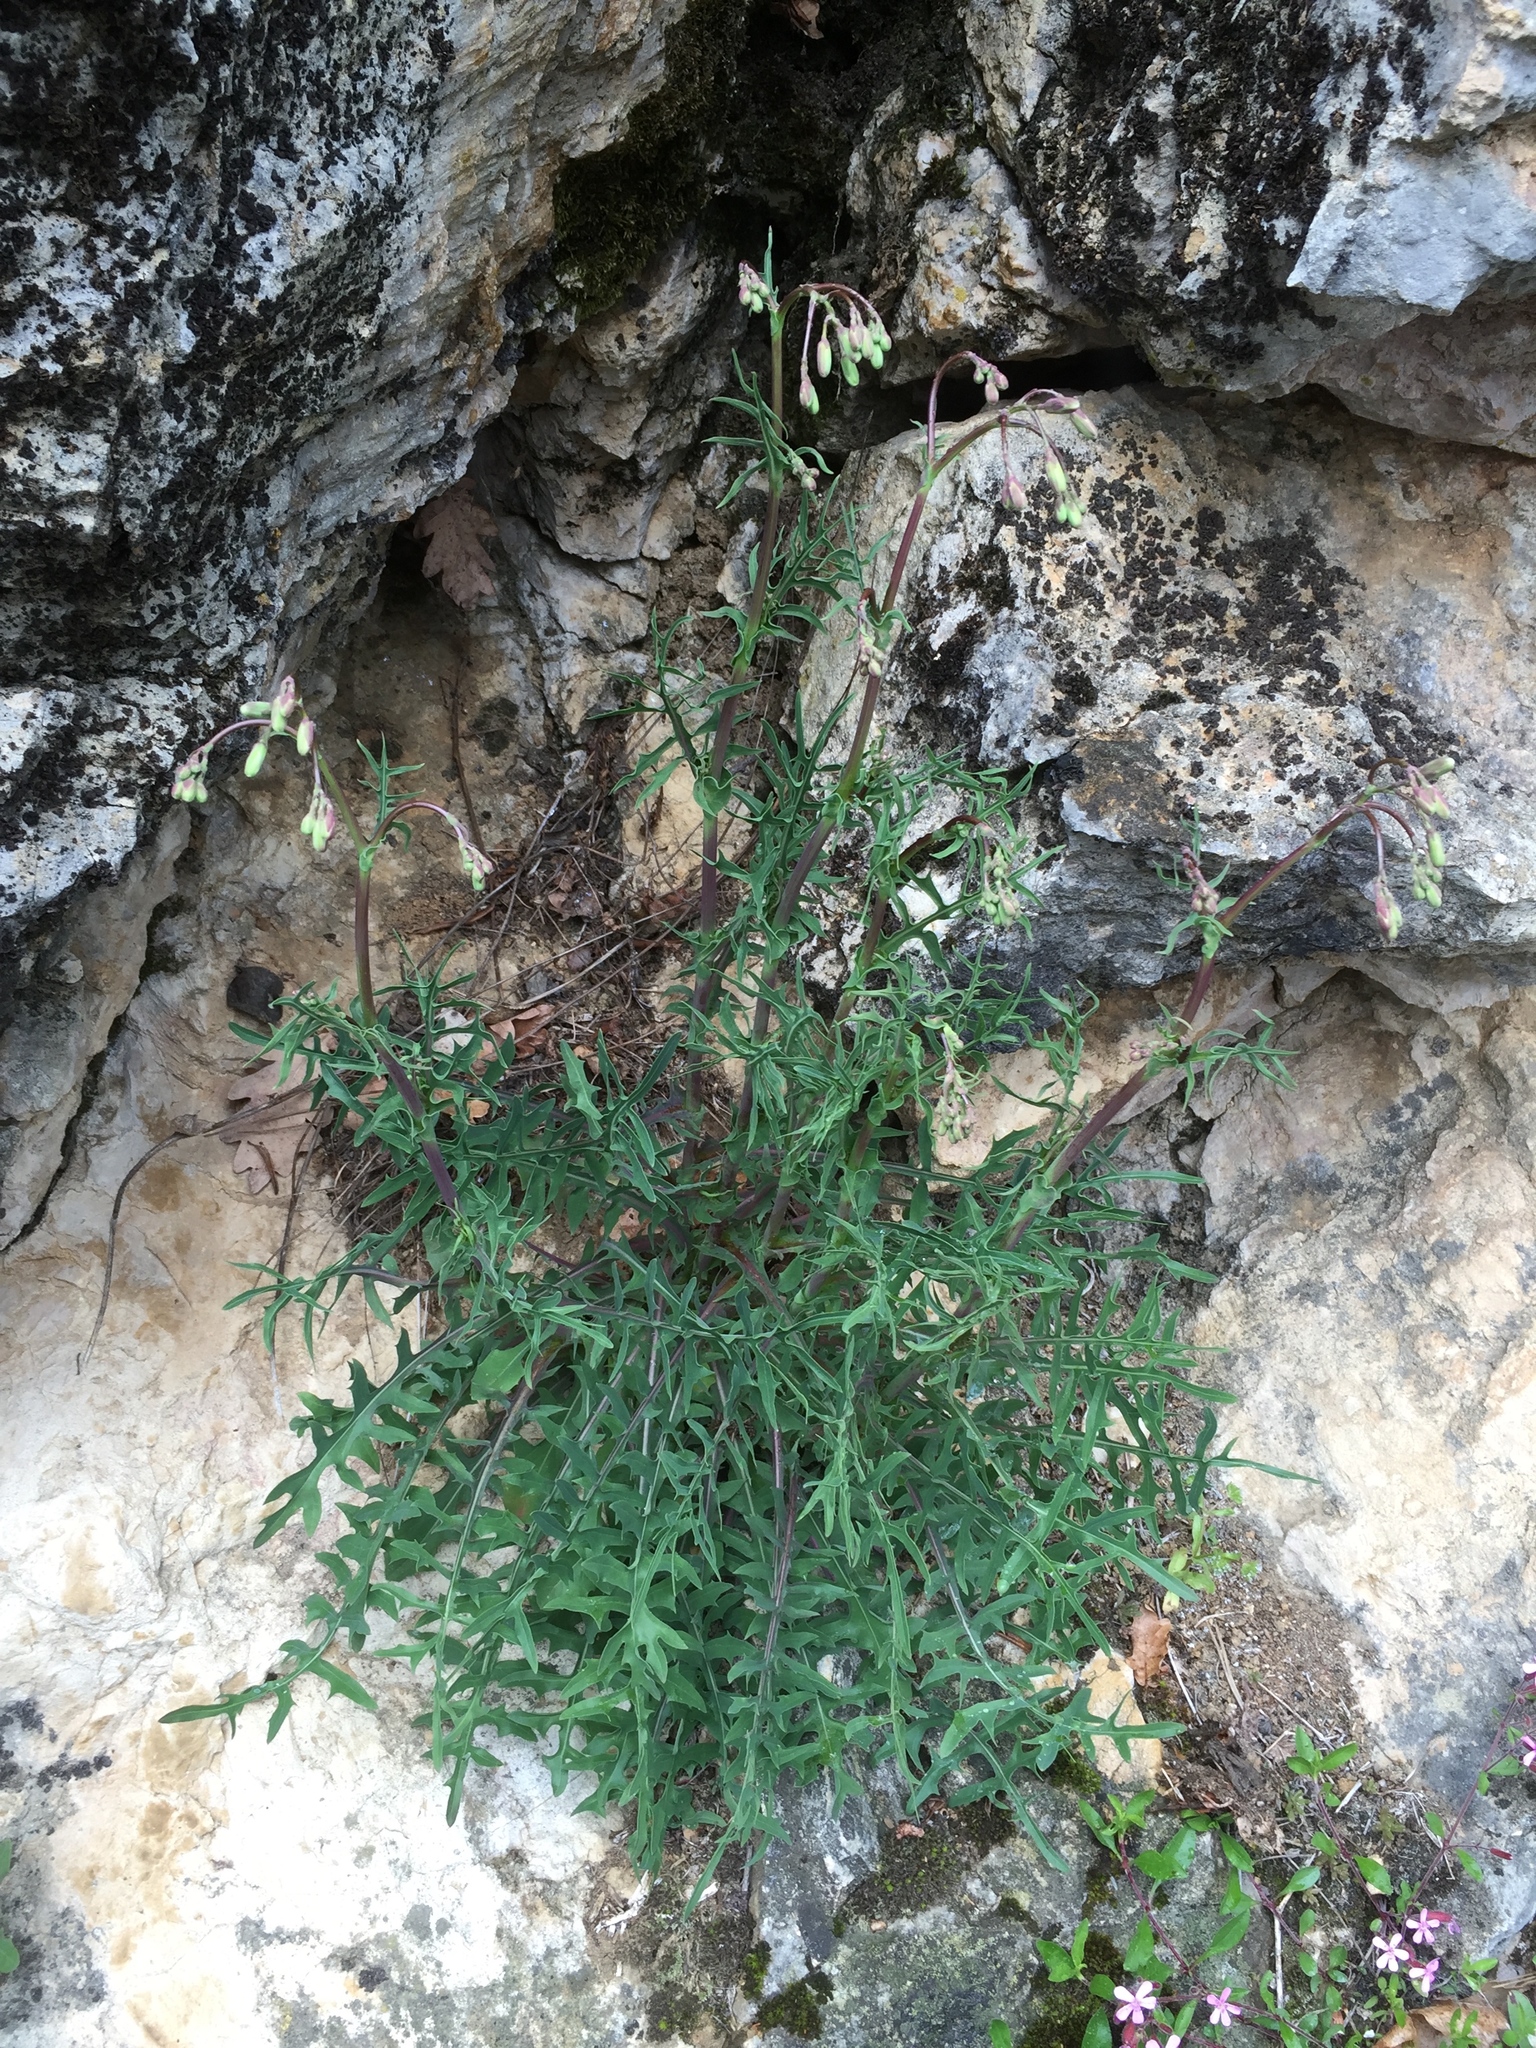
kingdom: Plantae
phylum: Tracheophyta
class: Magnoliopsida
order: Asterales
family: Asteraceae
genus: Lactuca
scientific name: Lactuca perennis
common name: Mountain lettuce
